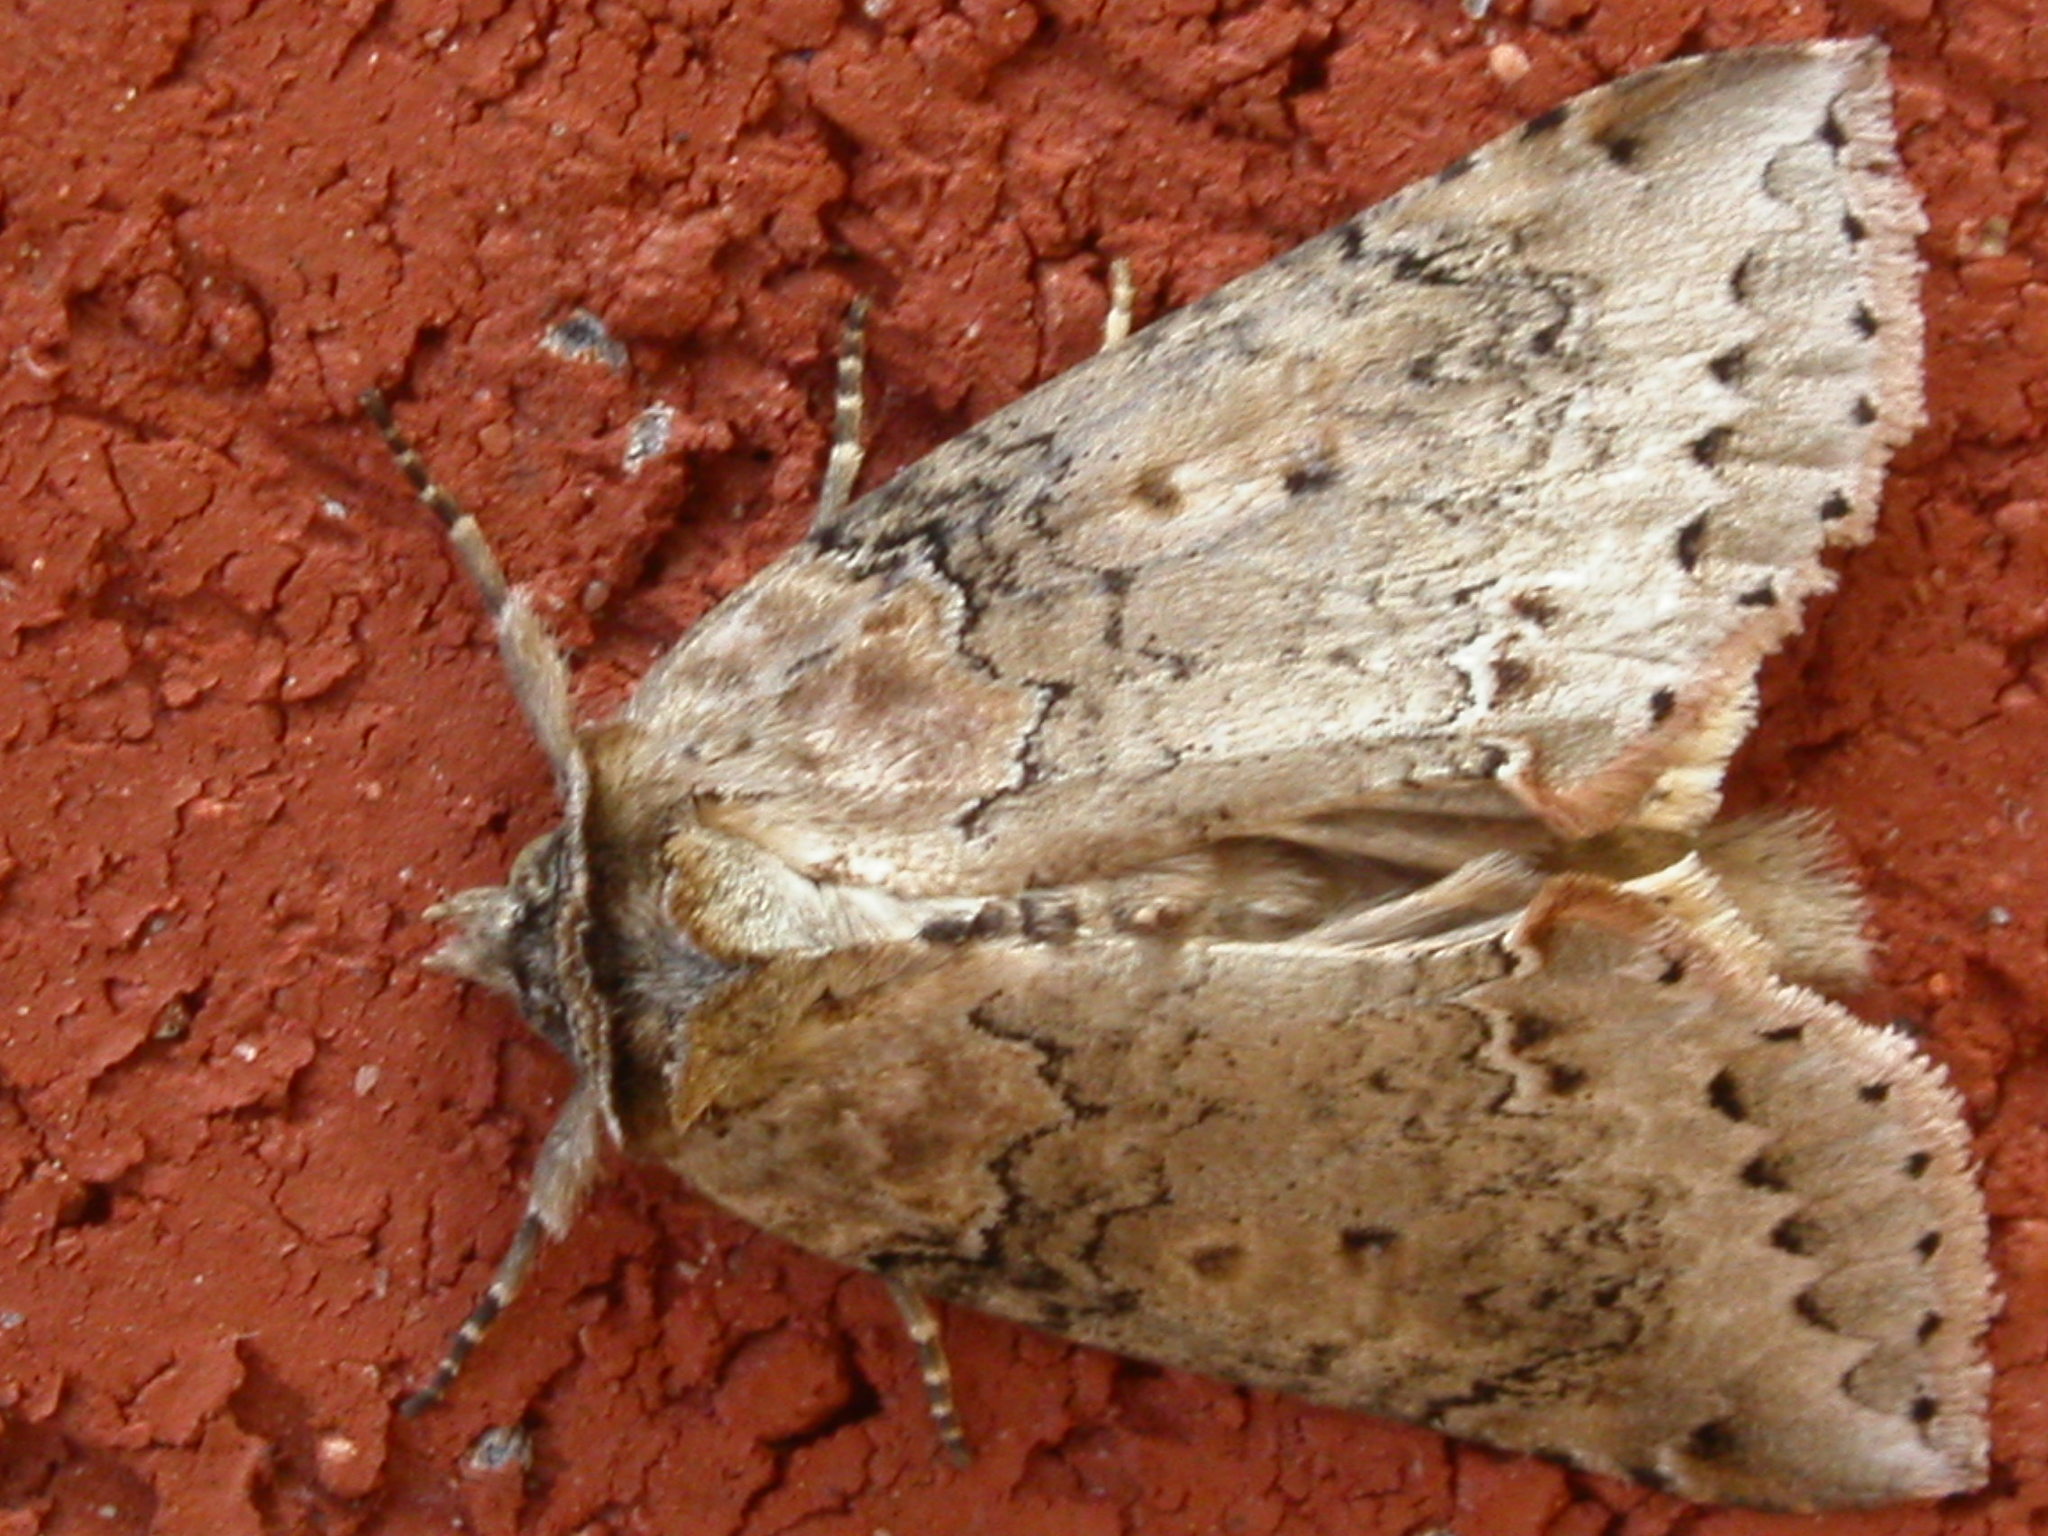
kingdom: Animalia
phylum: Arthropoda
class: Insecta
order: Lepidoptera
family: Drepanidae
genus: Pseudothyatira
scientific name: Pseudothyatira cymatophoroides
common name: Tufted thyatirid moth
